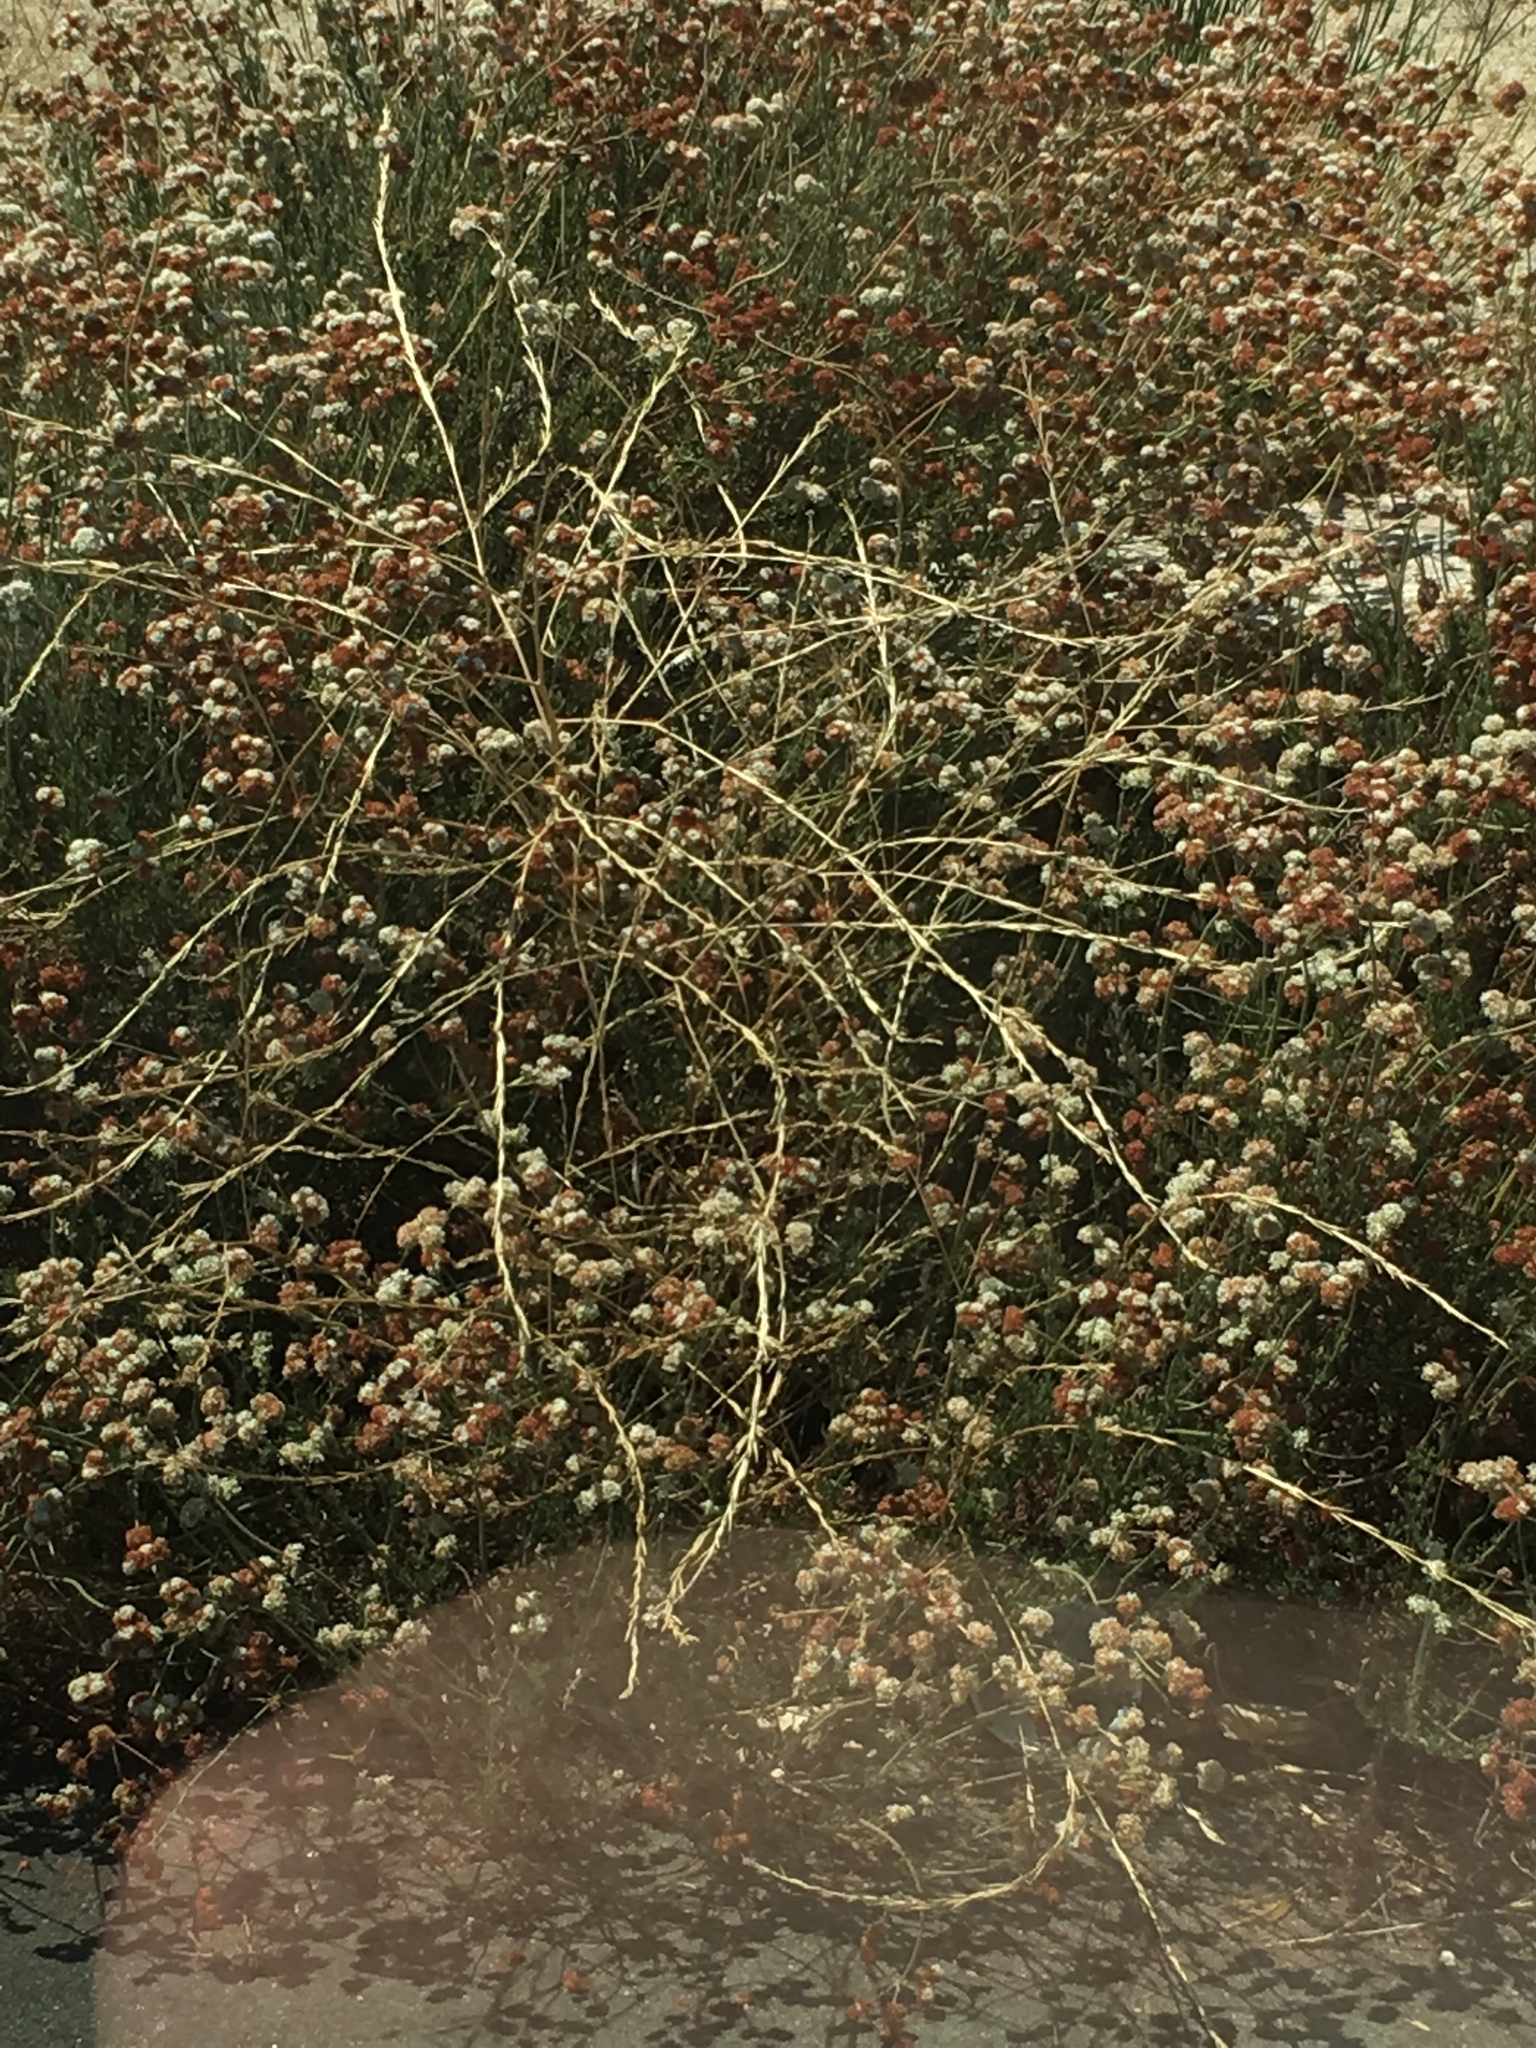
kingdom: Plantae
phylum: Tracheophyta
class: Magnoliopsida
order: Brassicales
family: Brassicaceae
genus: Hirschfeldia
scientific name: Hirschfeldia incana
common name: Hoary mustard
